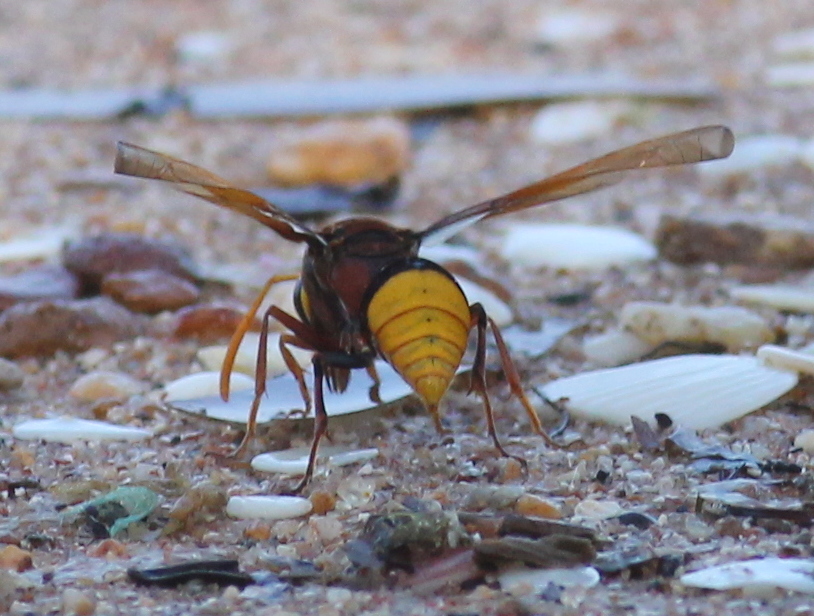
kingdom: Animalia
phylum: Arthropoda
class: Insecta
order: Hymenoptera
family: Eumenidae
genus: Delta
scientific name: Delta pyriforme
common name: Wasp
